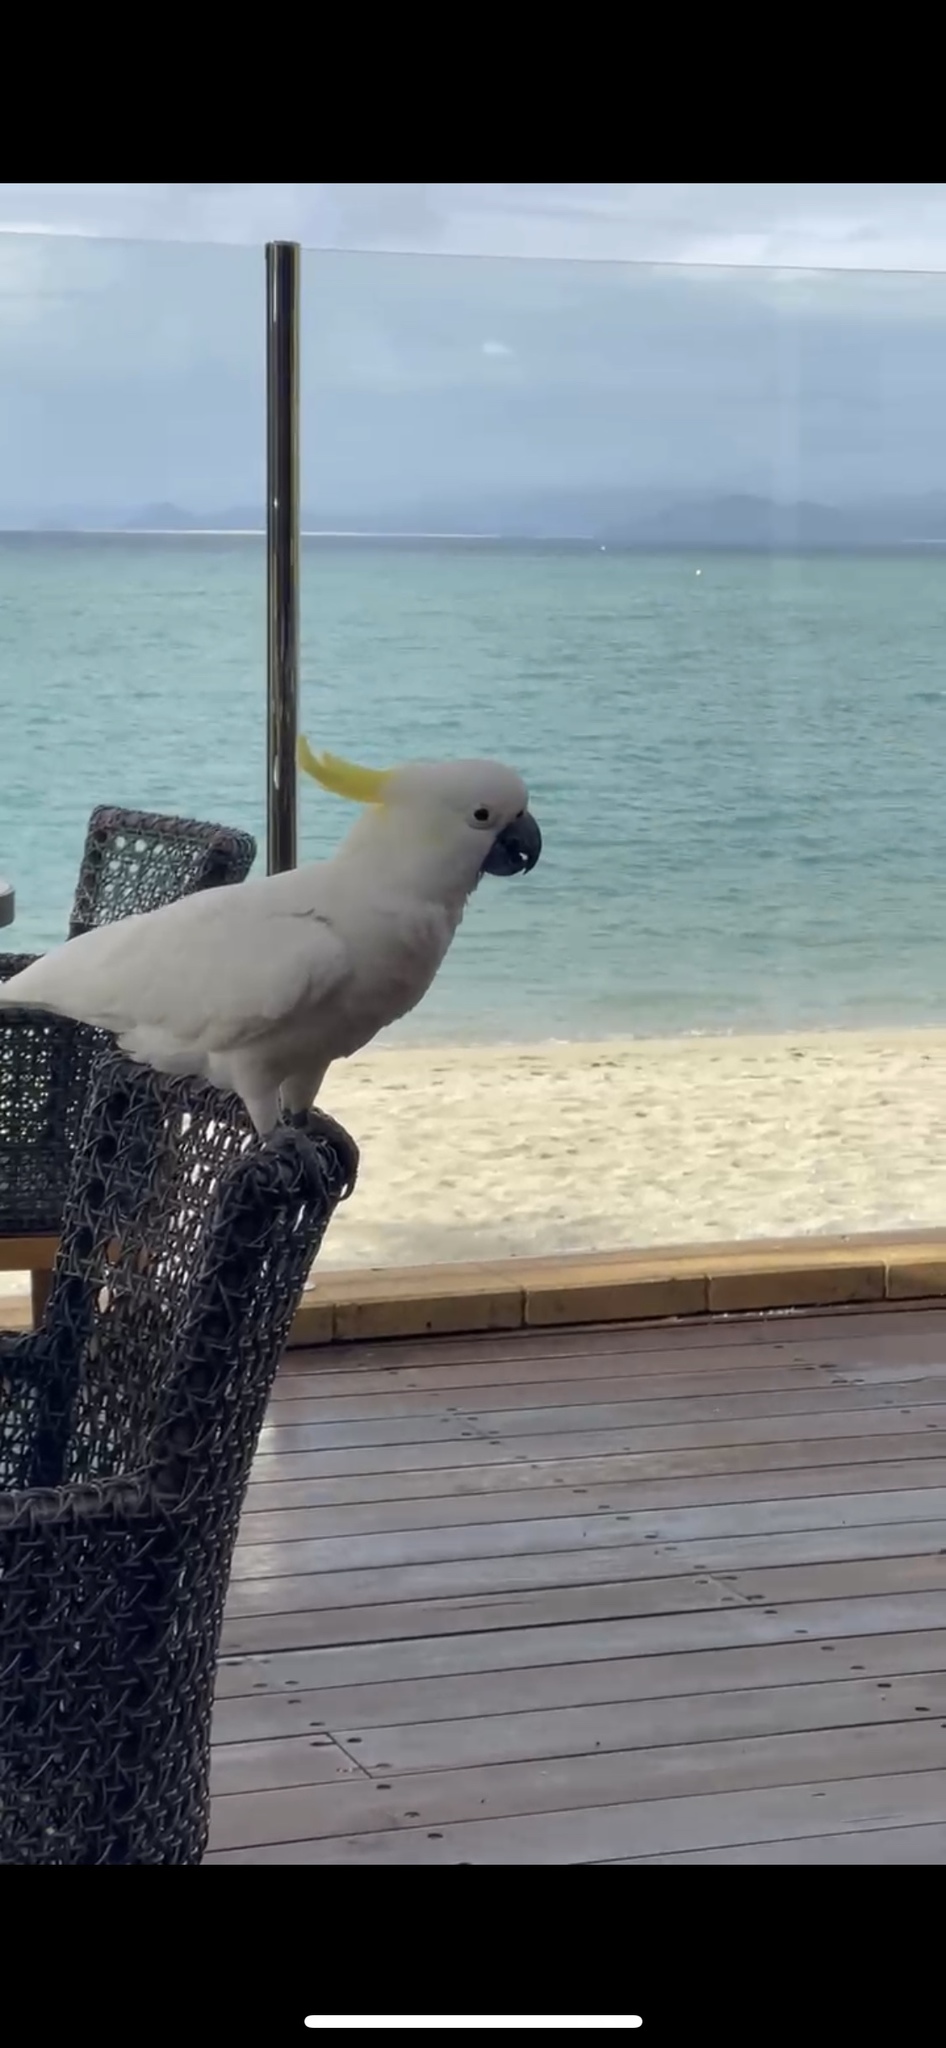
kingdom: Animalia
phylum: Chordata
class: Aves
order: Psittaciformes
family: Psittacidae
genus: Cacatua
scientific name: Cacatua galerita
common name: Sulphur-crested cockatoo
